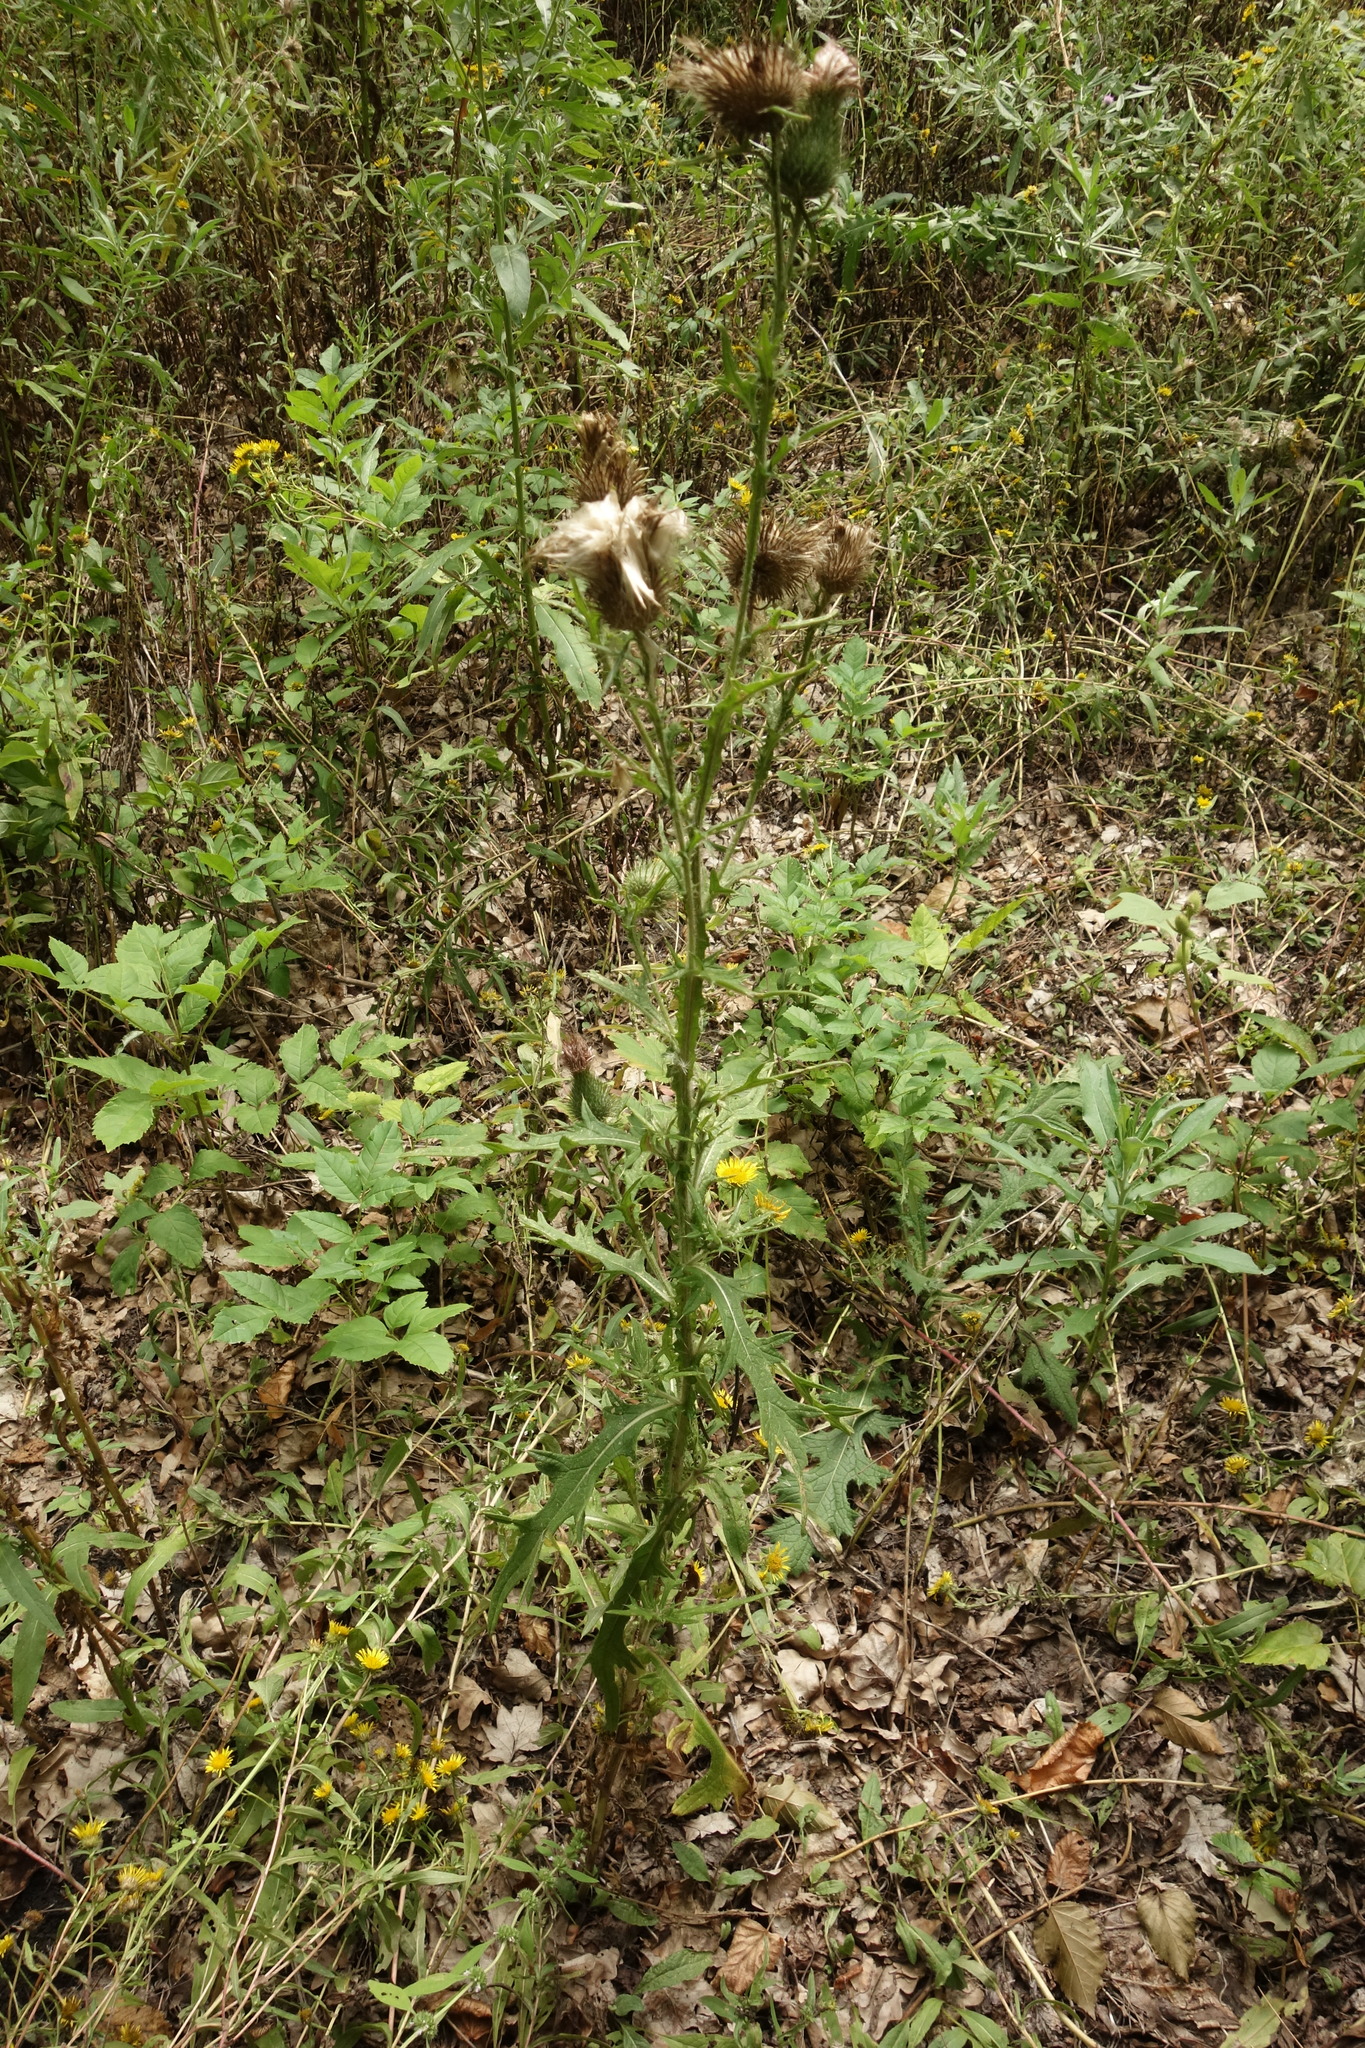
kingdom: Plantae
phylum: Tracheophyta
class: Magnoliopsida
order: Asterales
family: Asteraceae
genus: Cirsium
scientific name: Cirsium vulgare
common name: Bull thistle
